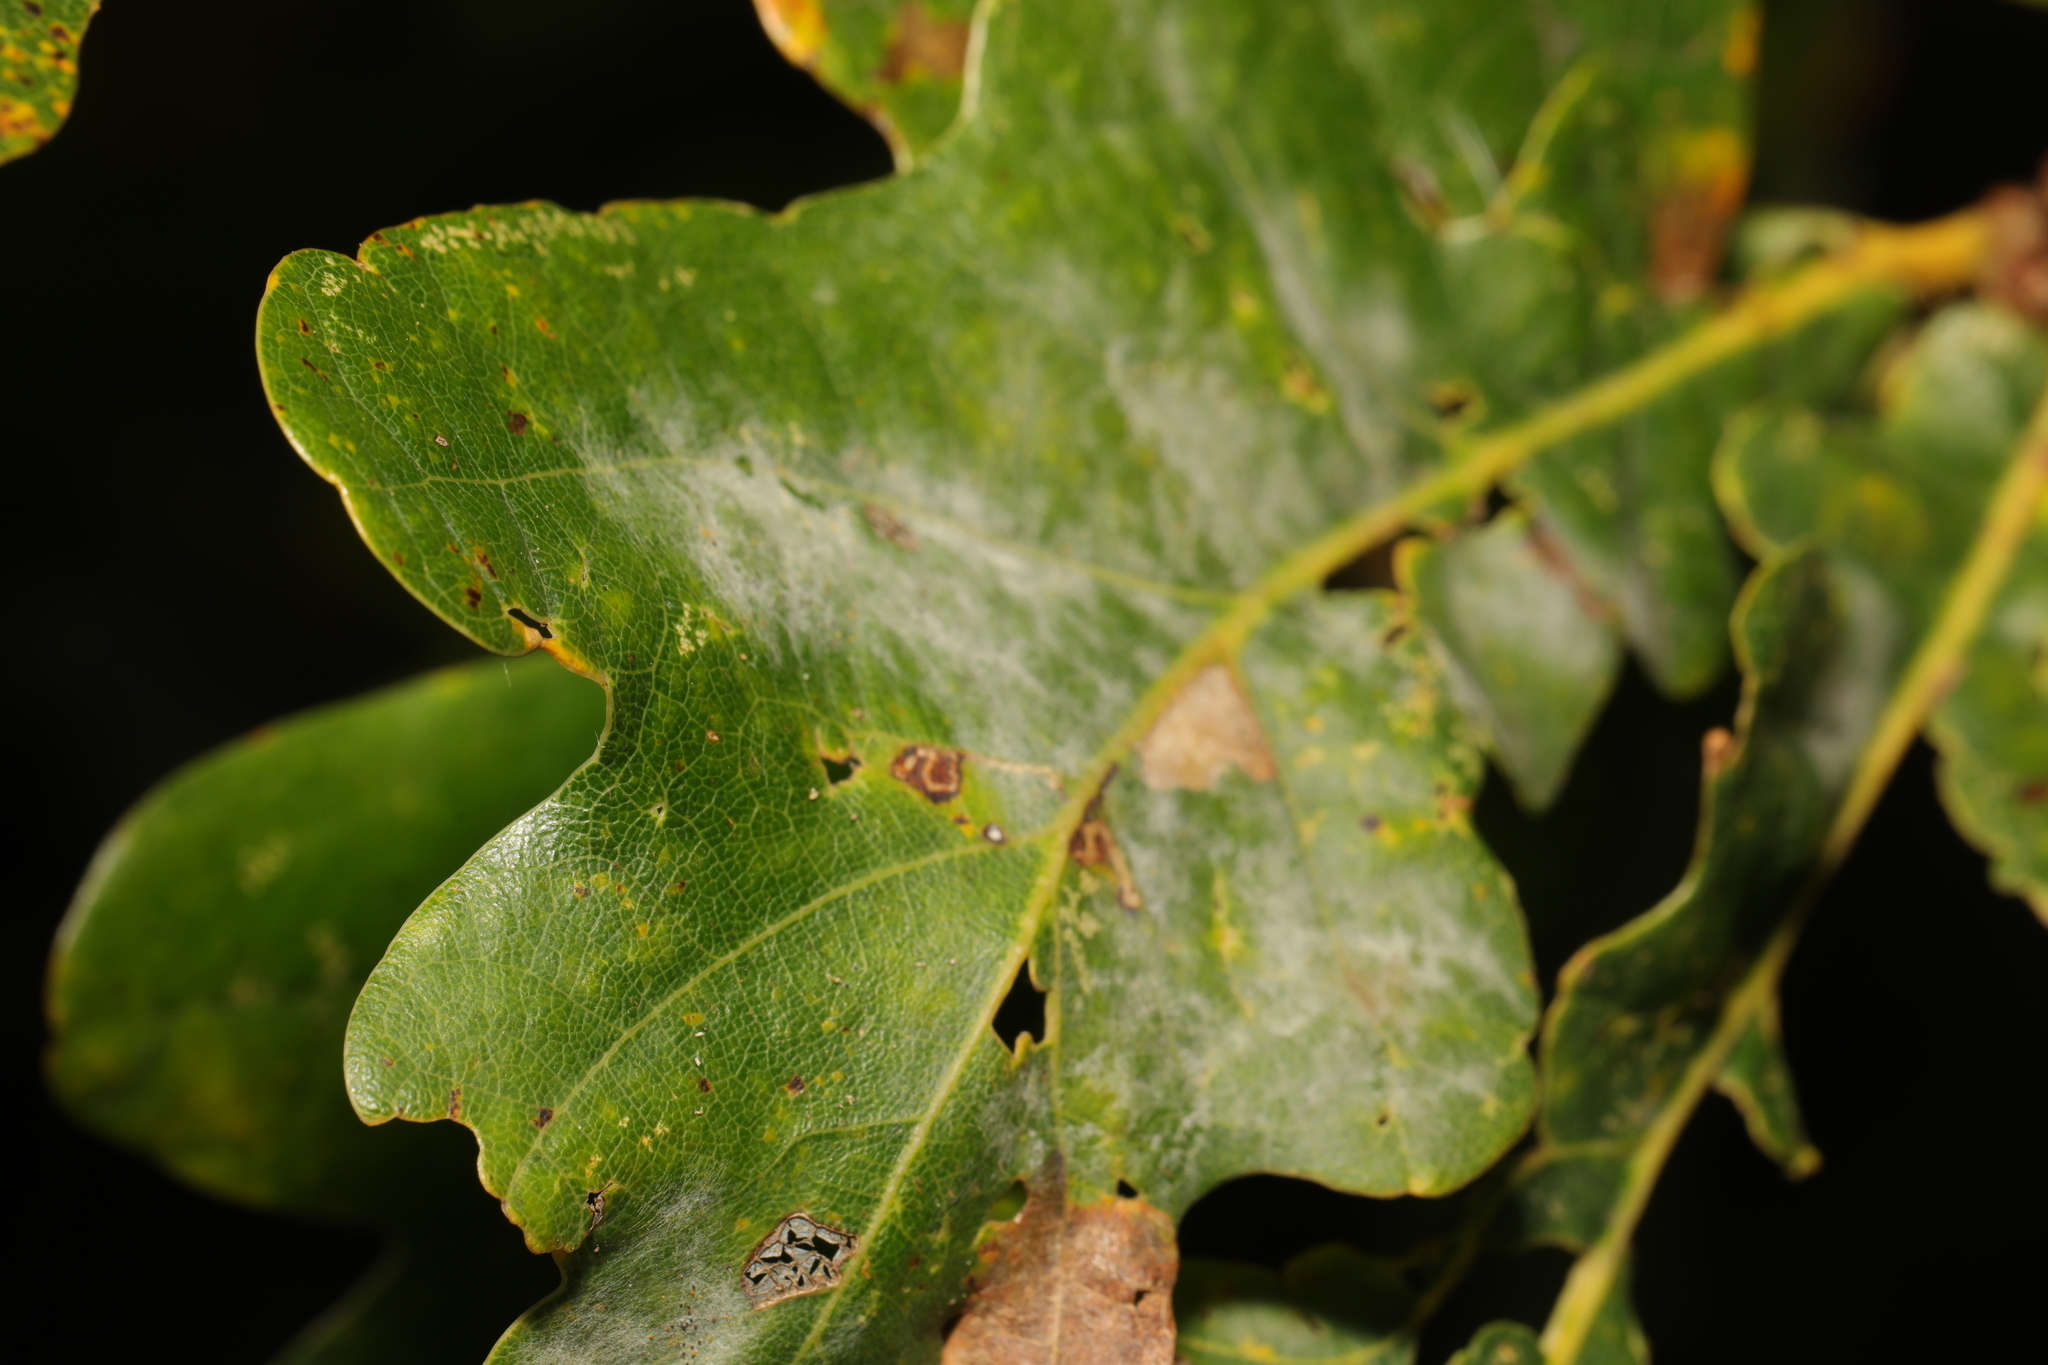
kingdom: Fungi
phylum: Ascomycota
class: Leotiomycetes
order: Helotiales
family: Erysiphaceae
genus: Erysiphe
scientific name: Erysiphe alphitoides
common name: Oak mildew
